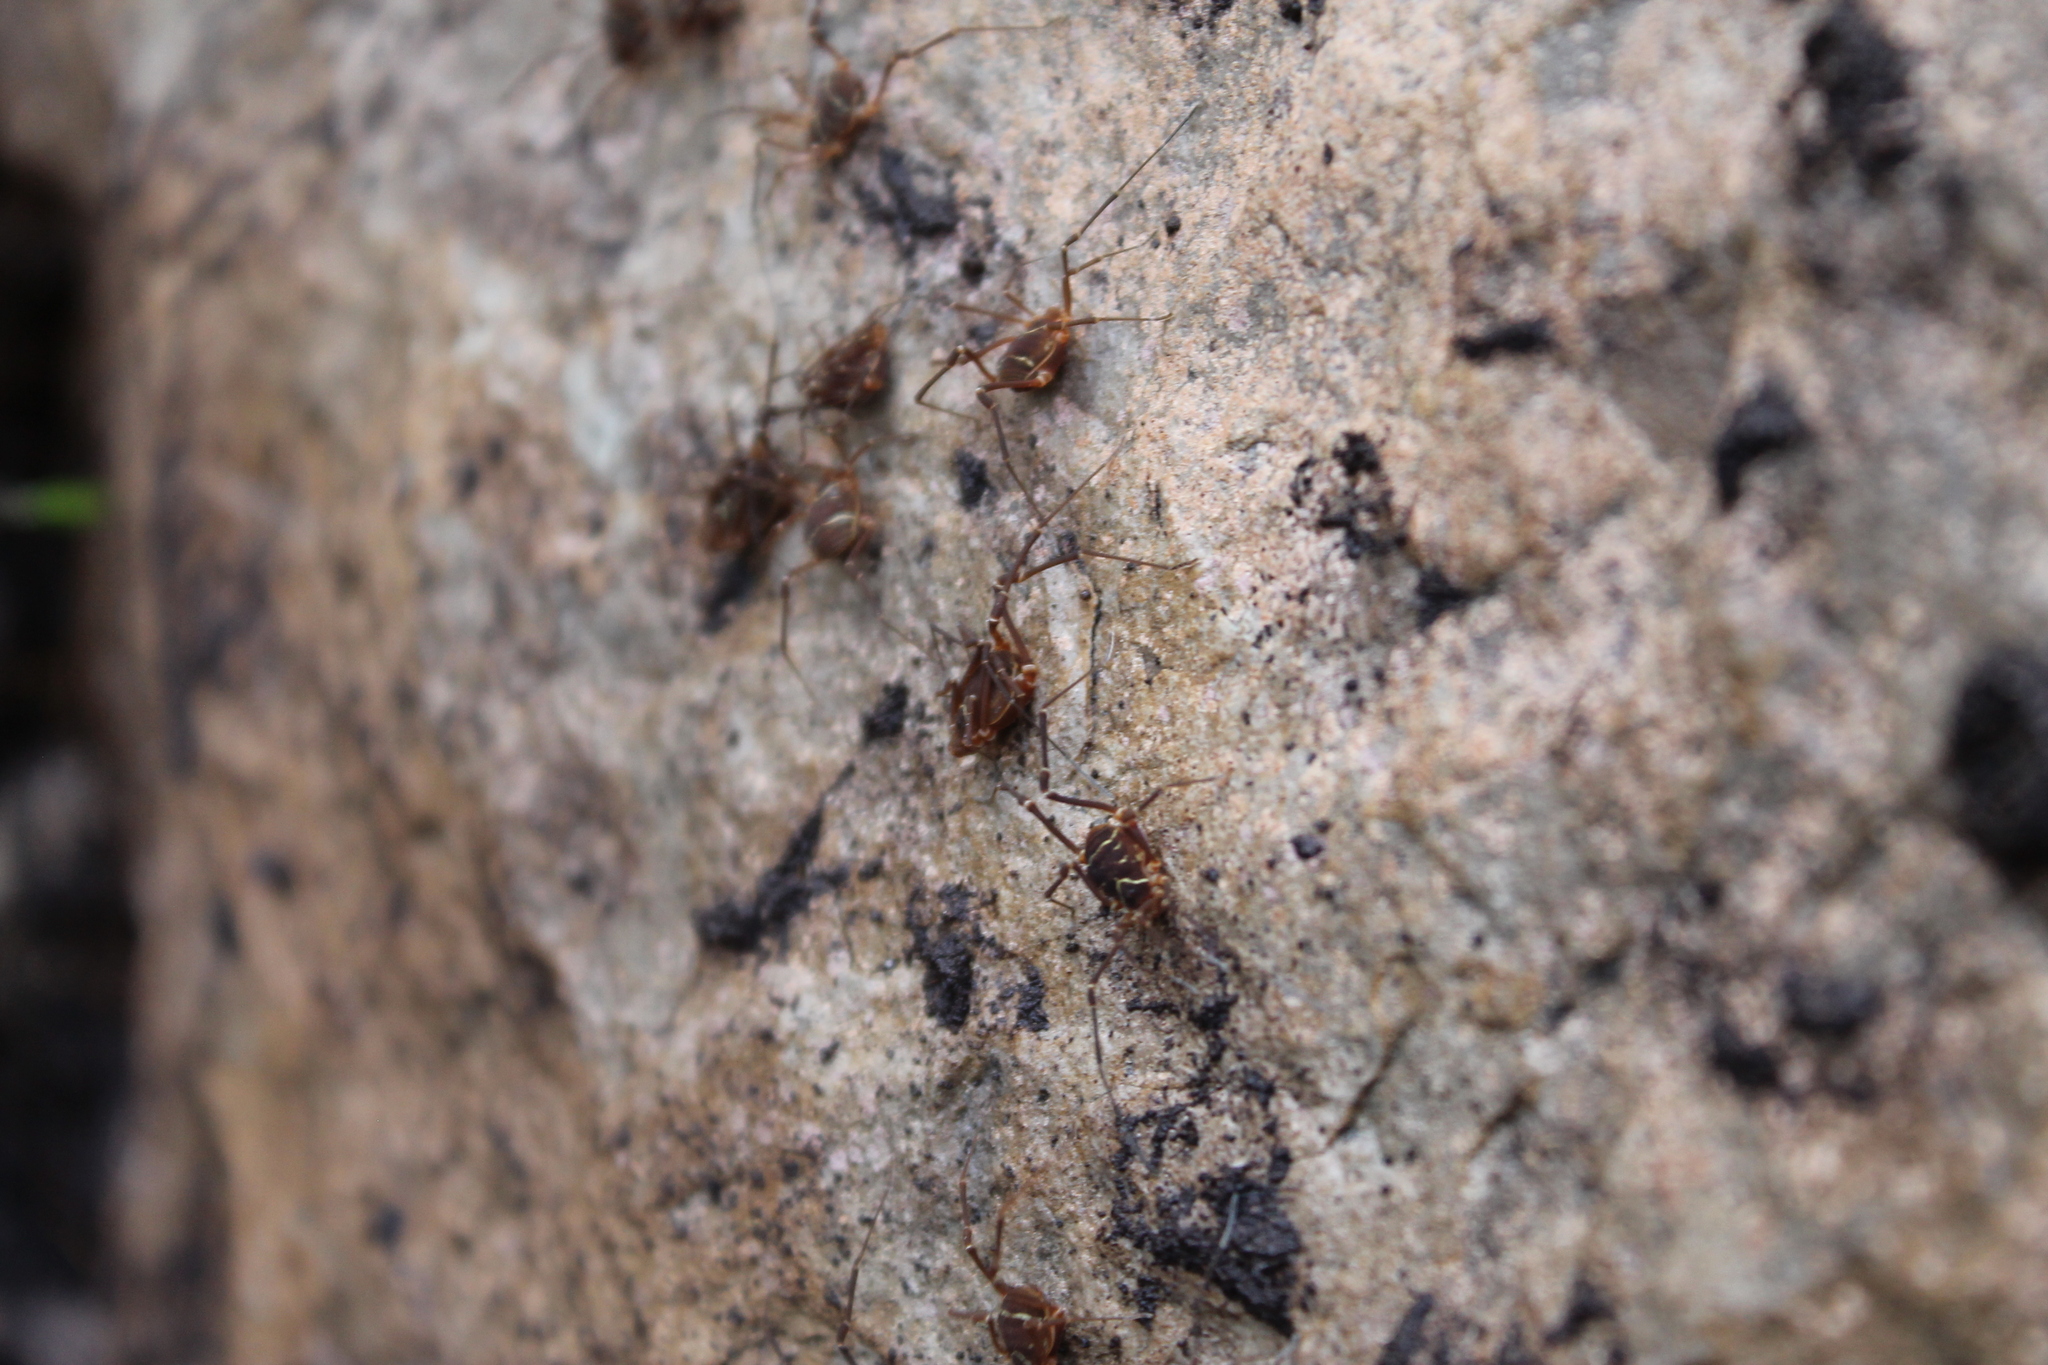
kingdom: Animalia
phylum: Arthropoda
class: Arachnida
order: Opiliones
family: Cosmetidae
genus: Libitioides
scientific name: Libitioides sayi
